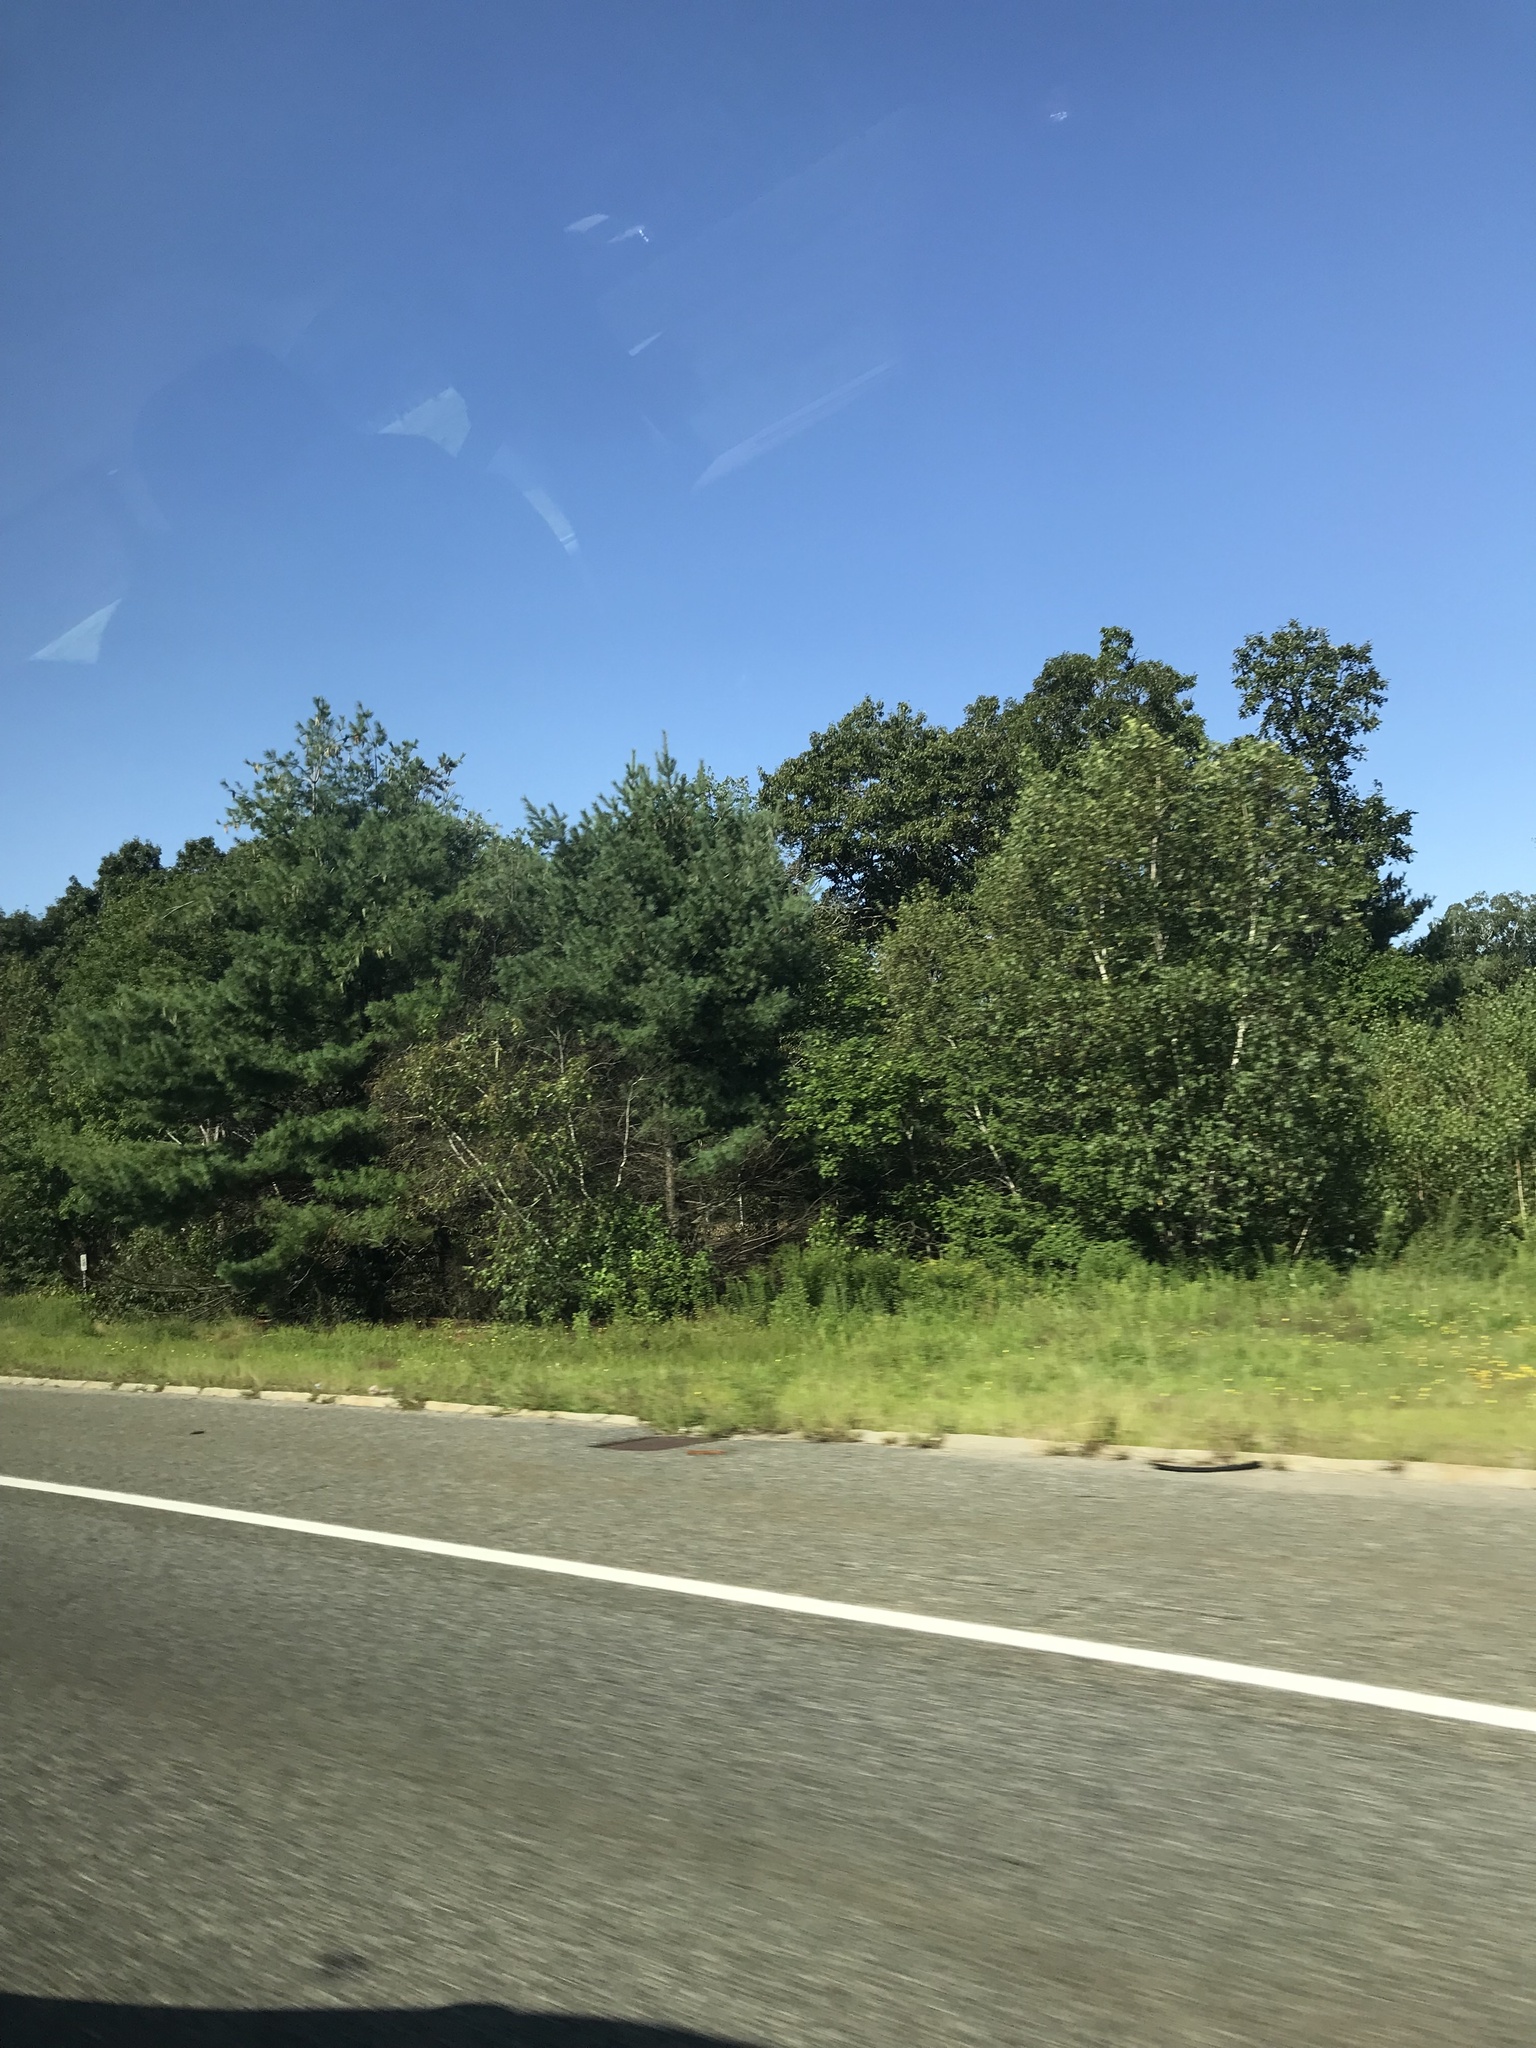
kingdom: Plantae
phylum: Tracheophyta
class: Pinopsida
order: Pinales
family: Pinaceae
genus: Pinus
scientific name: Pinus strobus
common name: Weymouth pine
